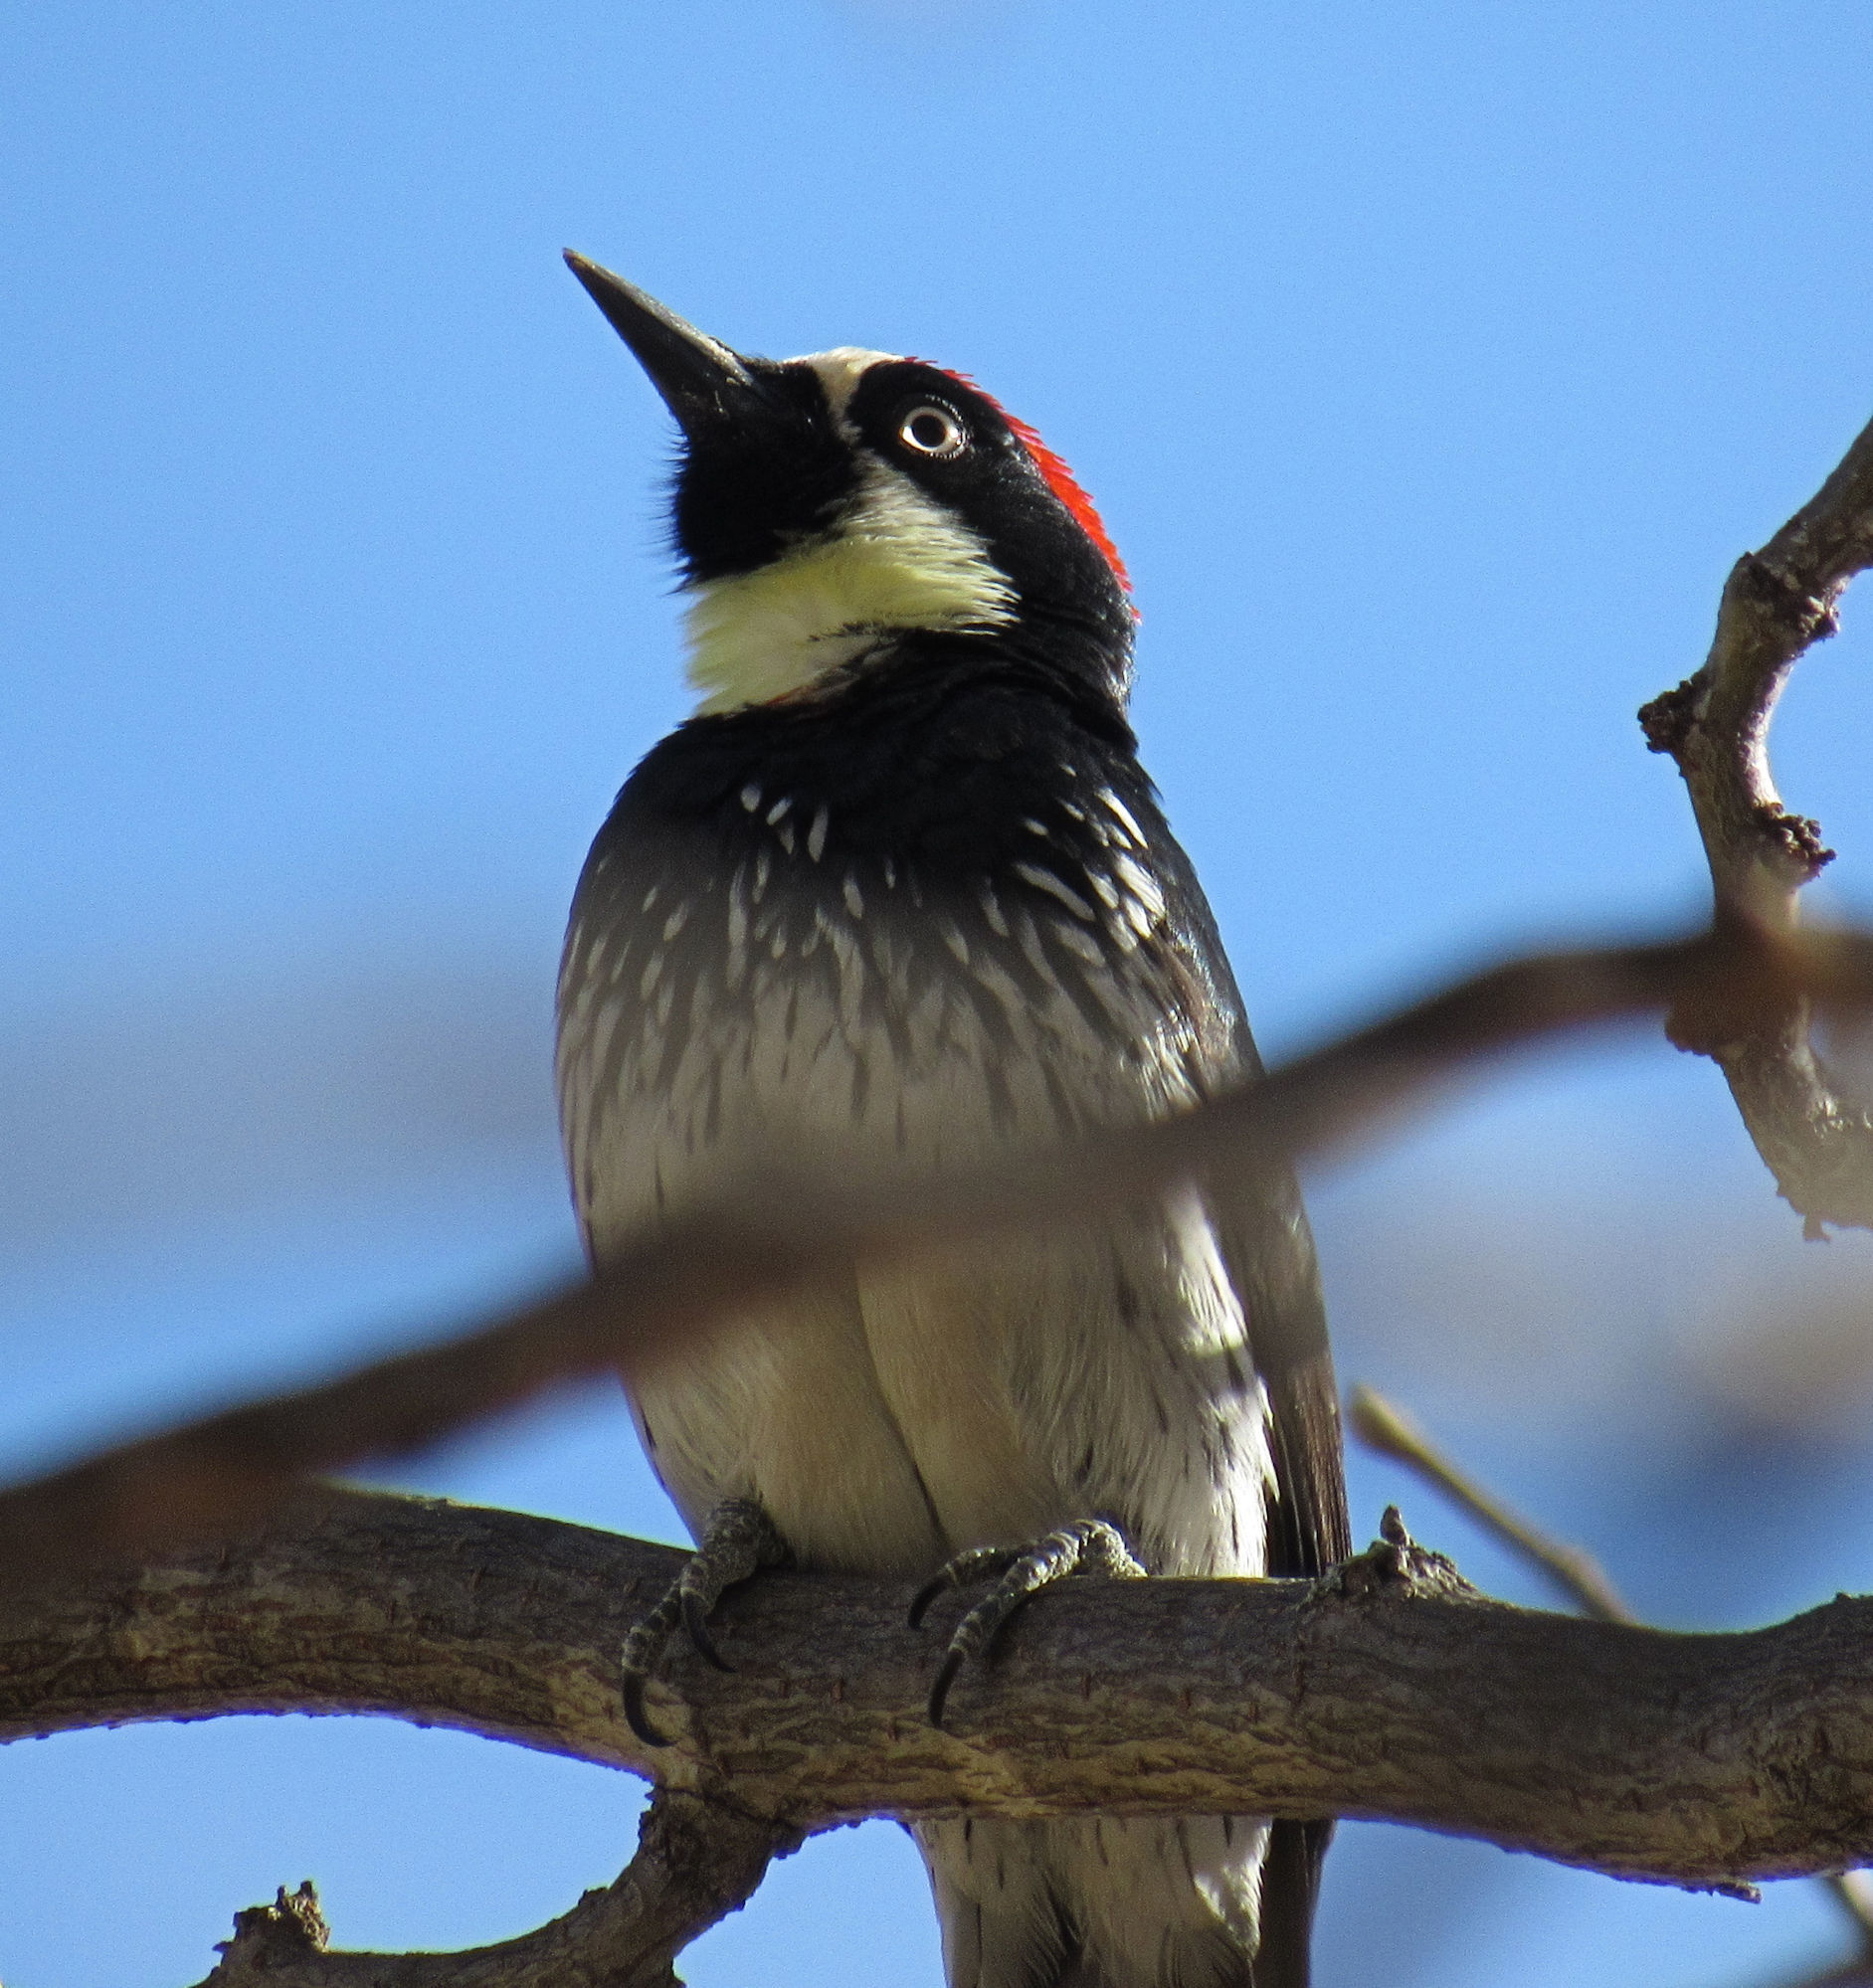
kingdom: Animalia
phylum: Chordata
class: Aves
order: Piciformes
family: Picidae
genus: Melanerpes
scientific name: Melanerpes formicivorus
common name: Acorn woodpecker
